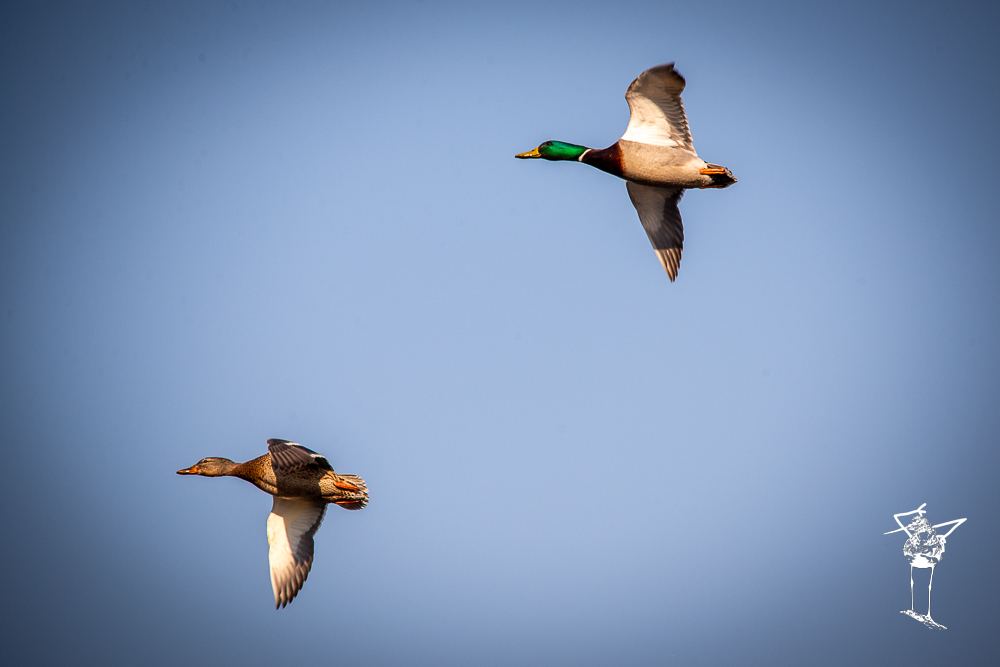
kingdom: Animalia
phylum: Chordata
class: Aves
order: Anseriformes
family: Anatidae
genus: Anas
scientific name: Anas platyrhynchos
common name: Mallard
